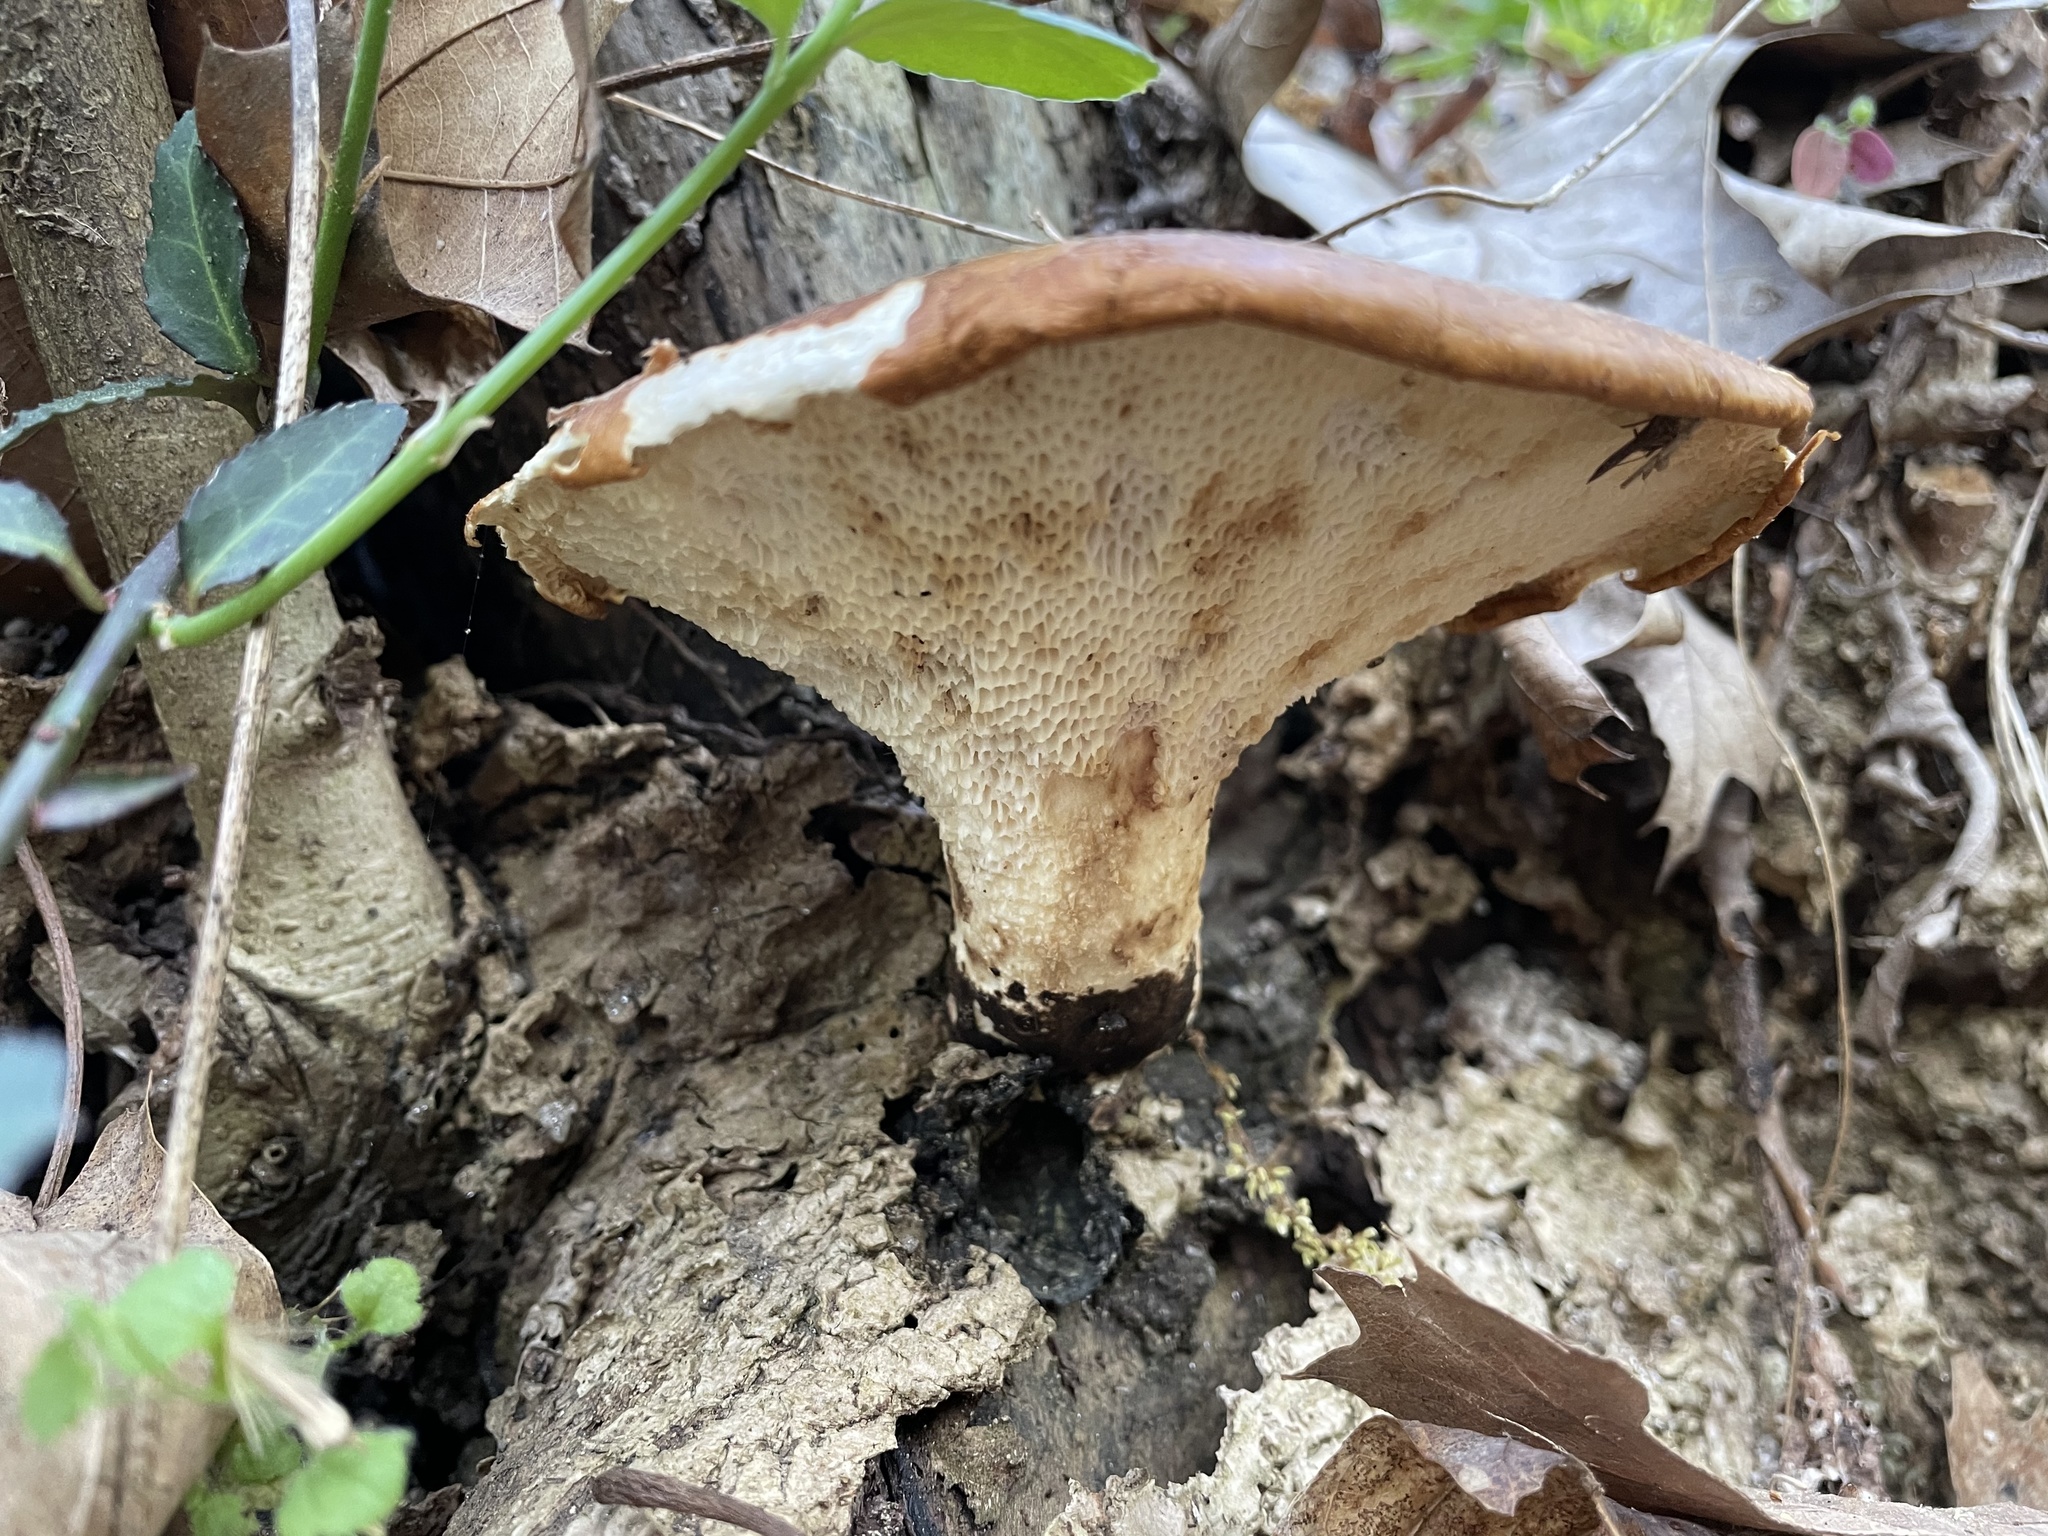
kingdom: Fungi
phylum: Basidiomycota
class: Agaricomycetes
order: Polyporales
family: Polyporaceae
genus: Cerioporus
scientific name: Cerioporus squamosus
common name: Dryad's saddle
